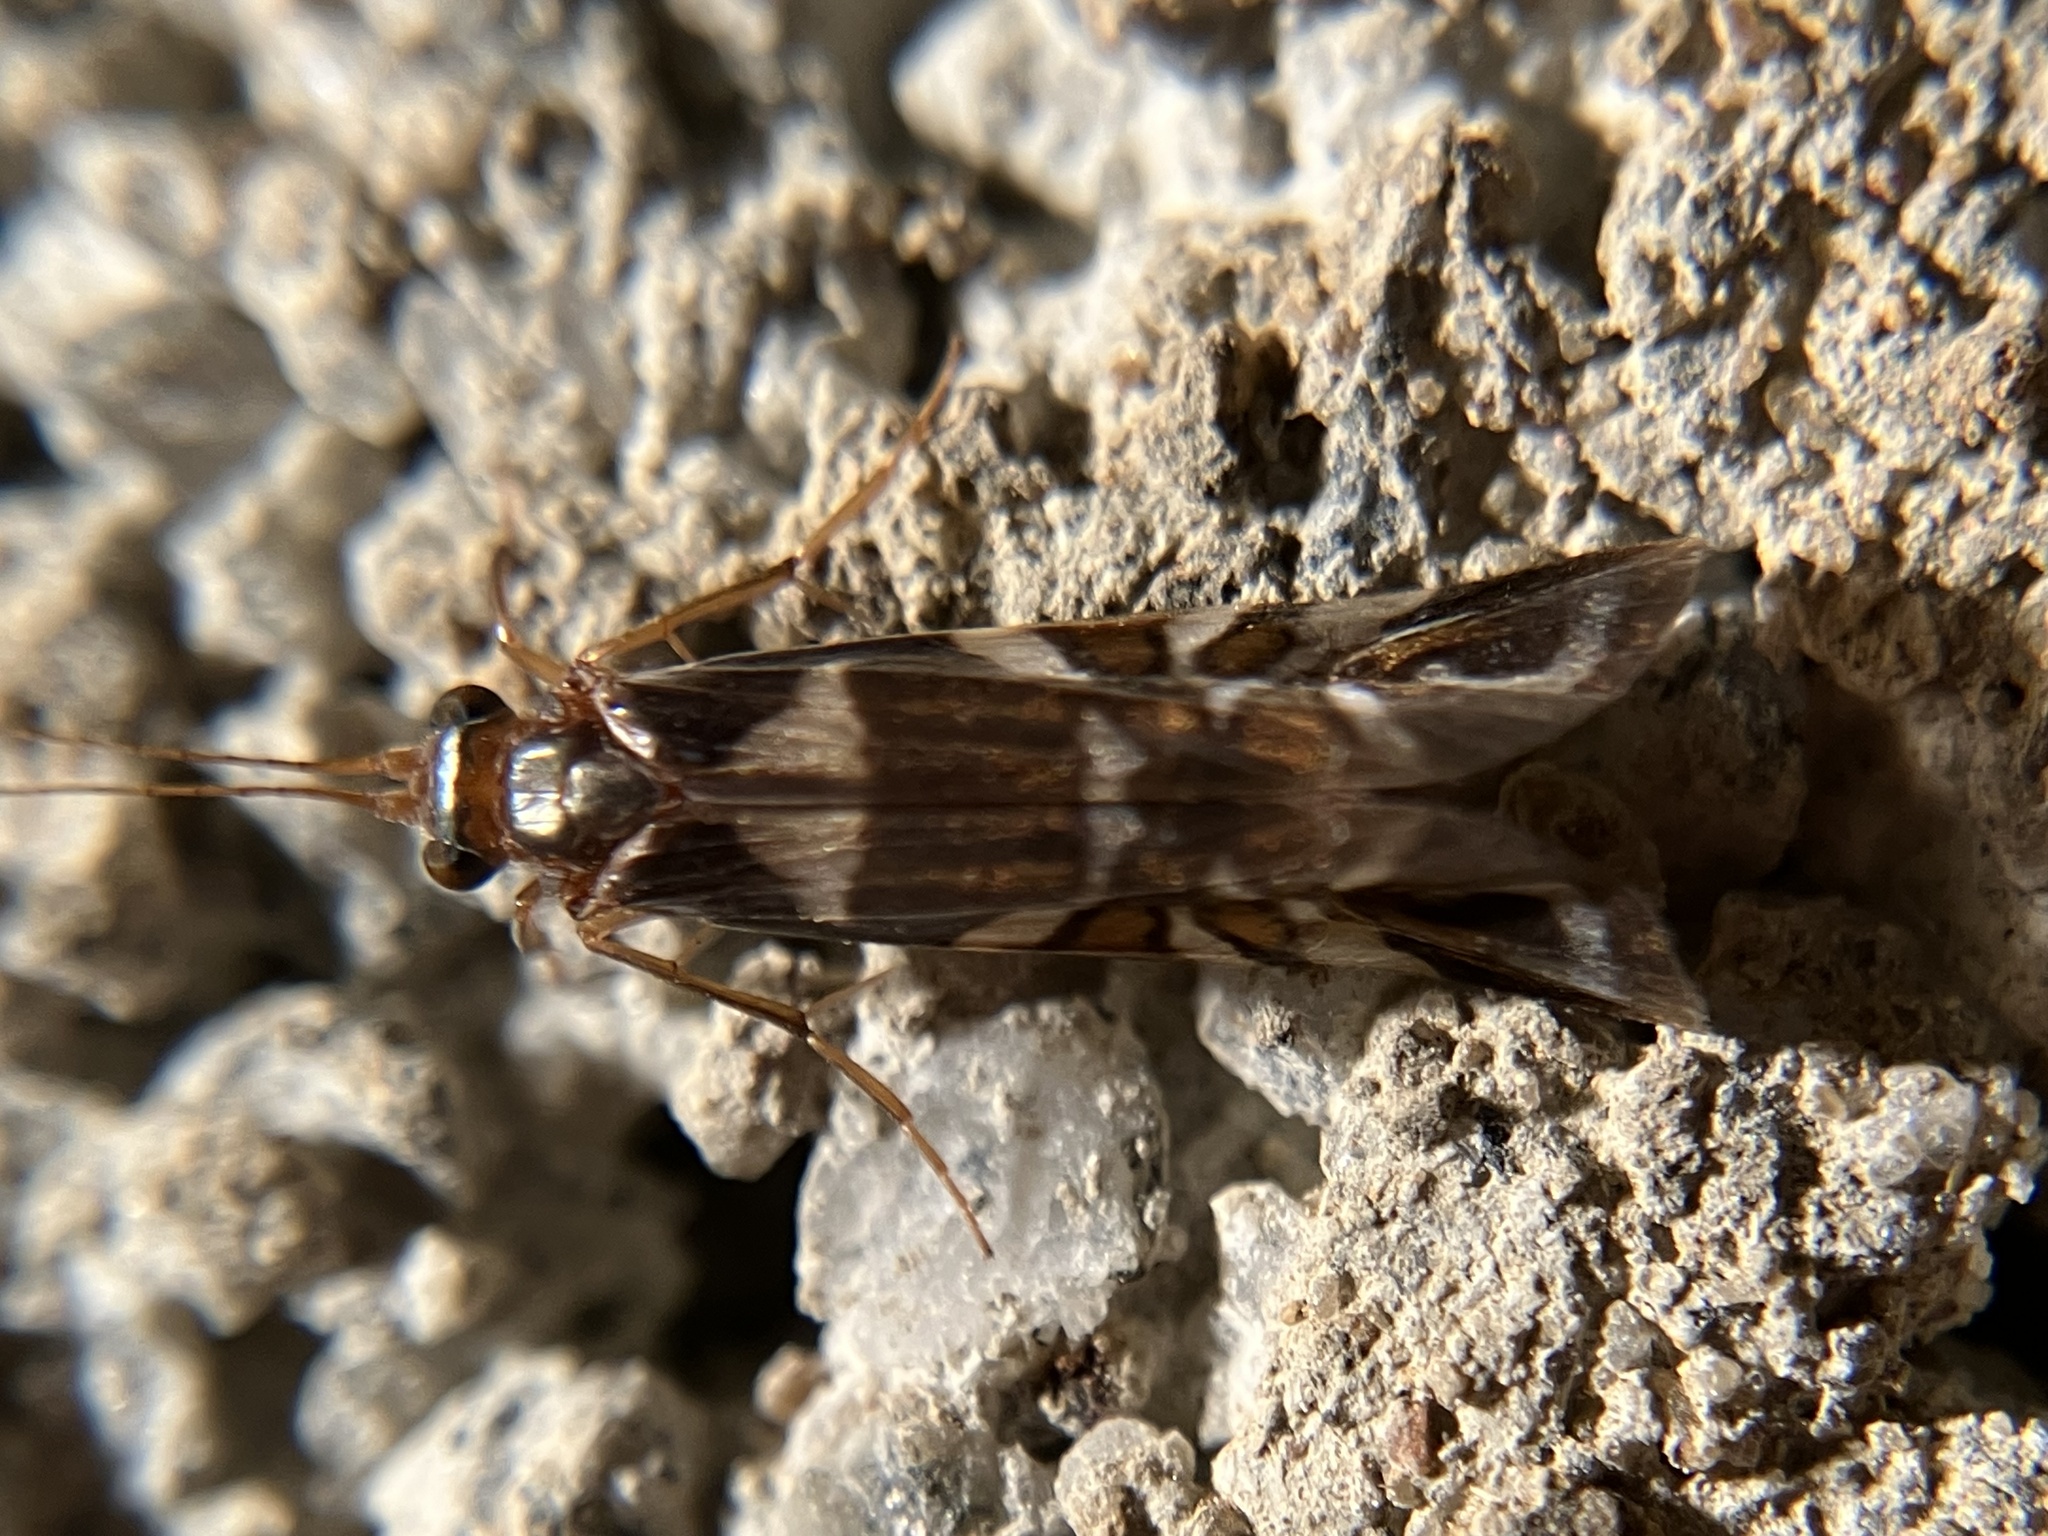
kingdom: Animalia
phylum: Arthropoda
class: Insecta
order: Trichoptera
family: Hydropsychidae
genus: Macrostemum
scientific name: Macrostemum pseudoneura
